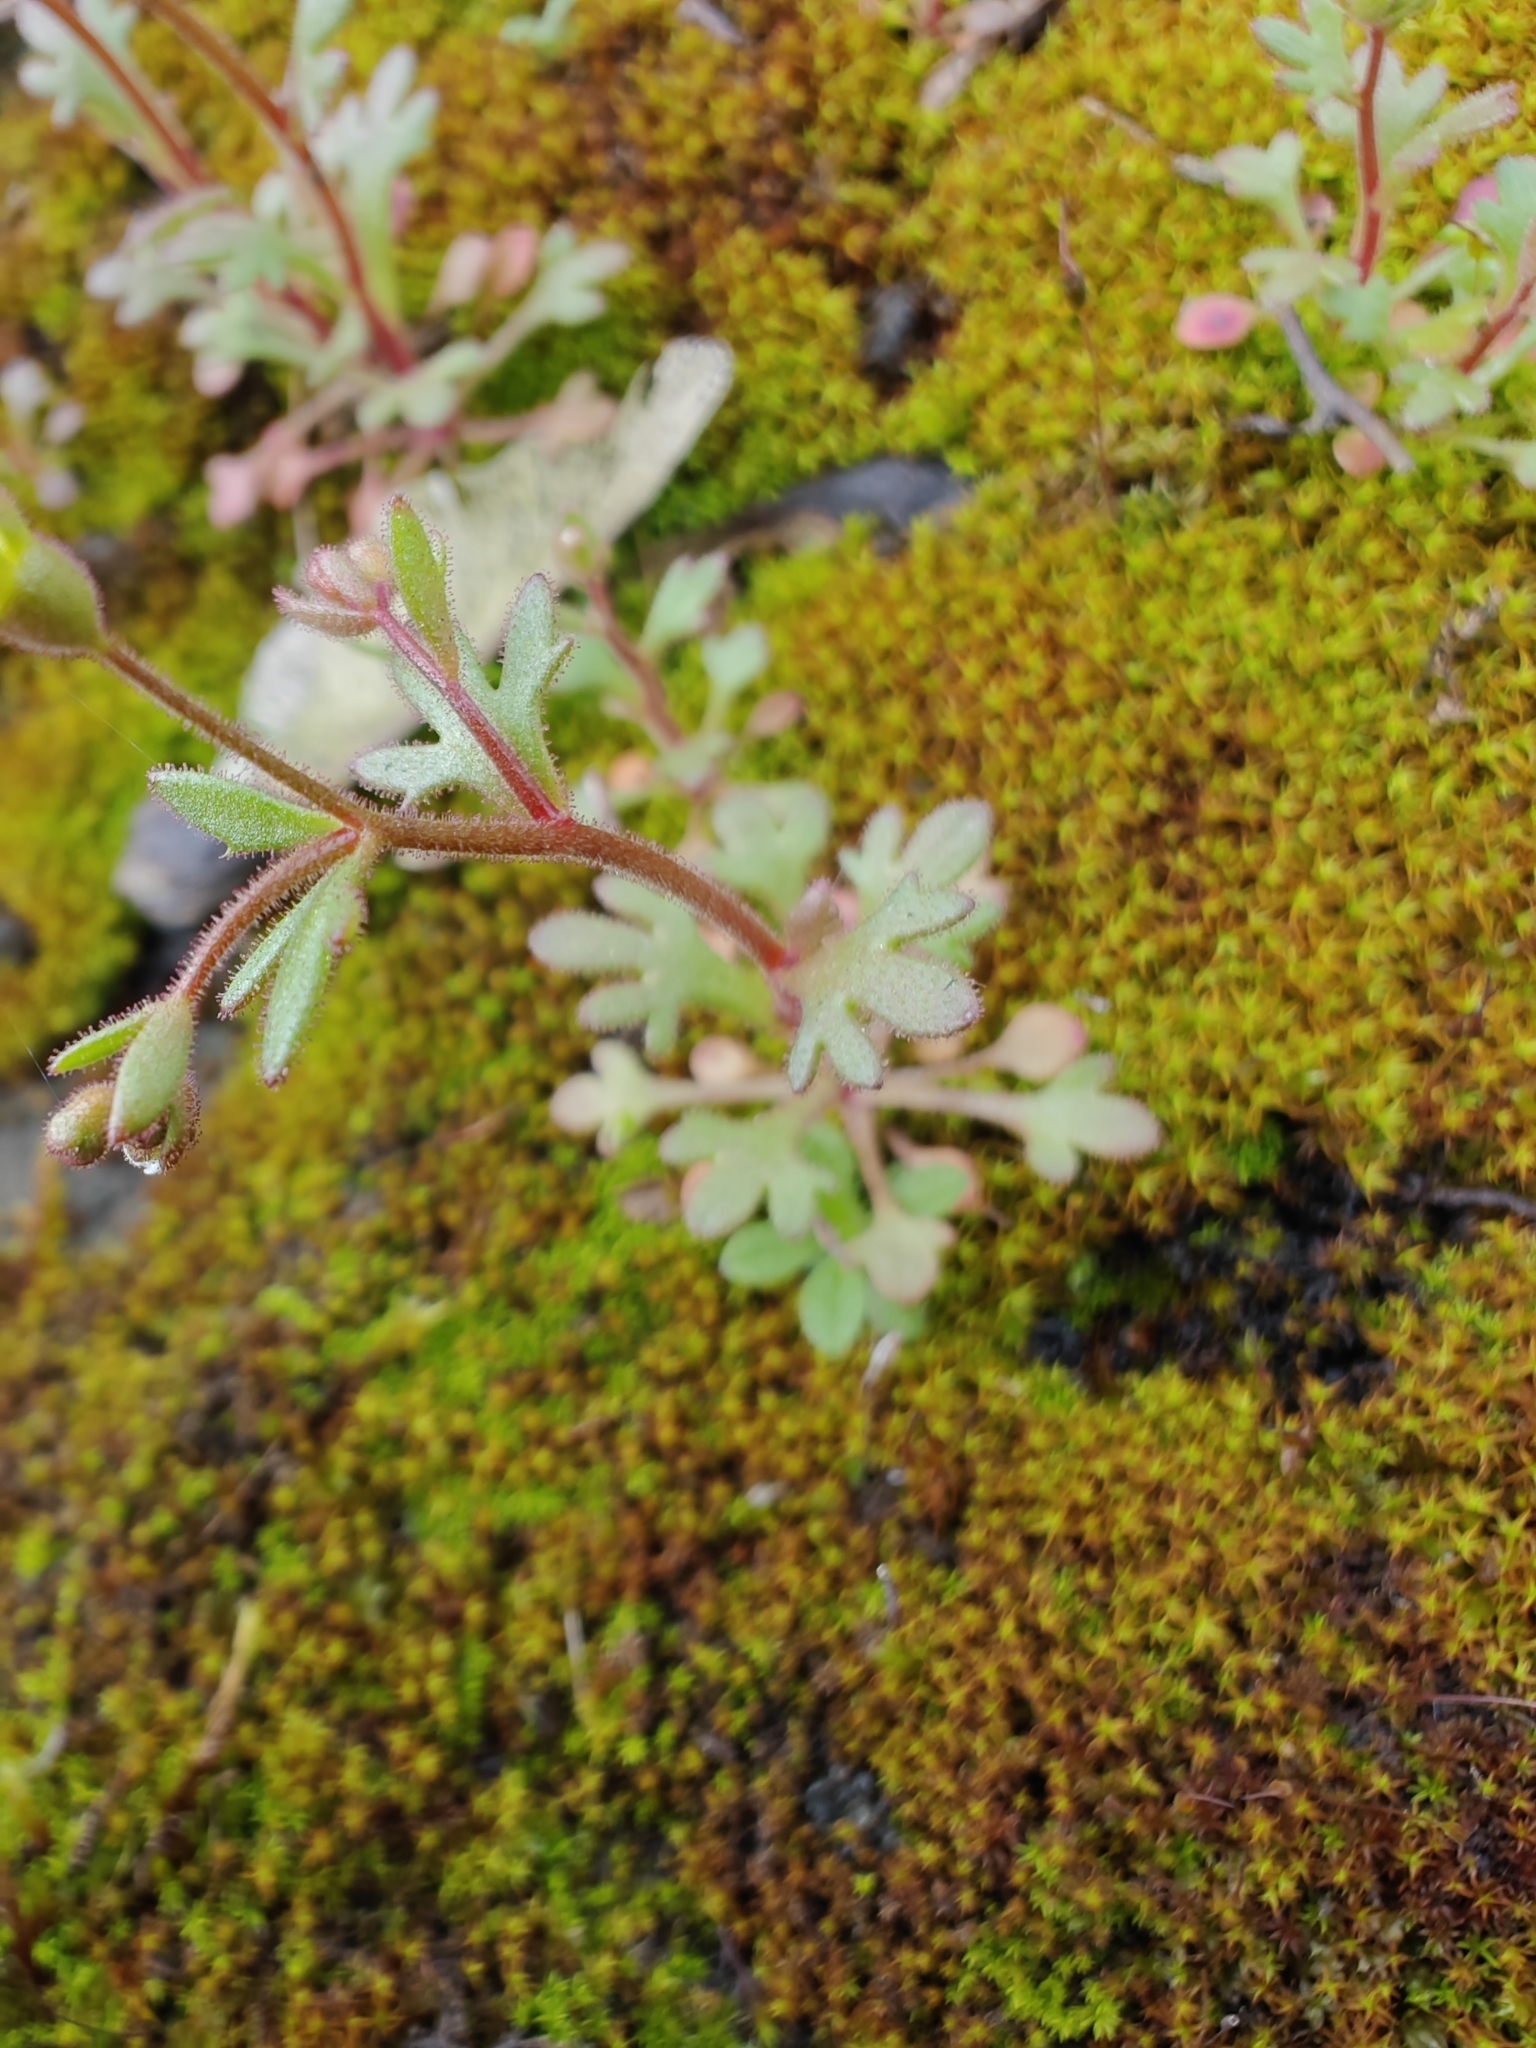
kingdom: Plantae
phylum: Tracheophyta
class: Magnoliopsida
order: Saxifragales
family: Saxifragaceae
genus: Saxifraga
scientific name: Saxifraga tridactylites
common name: Rue-leaved saxifrage
